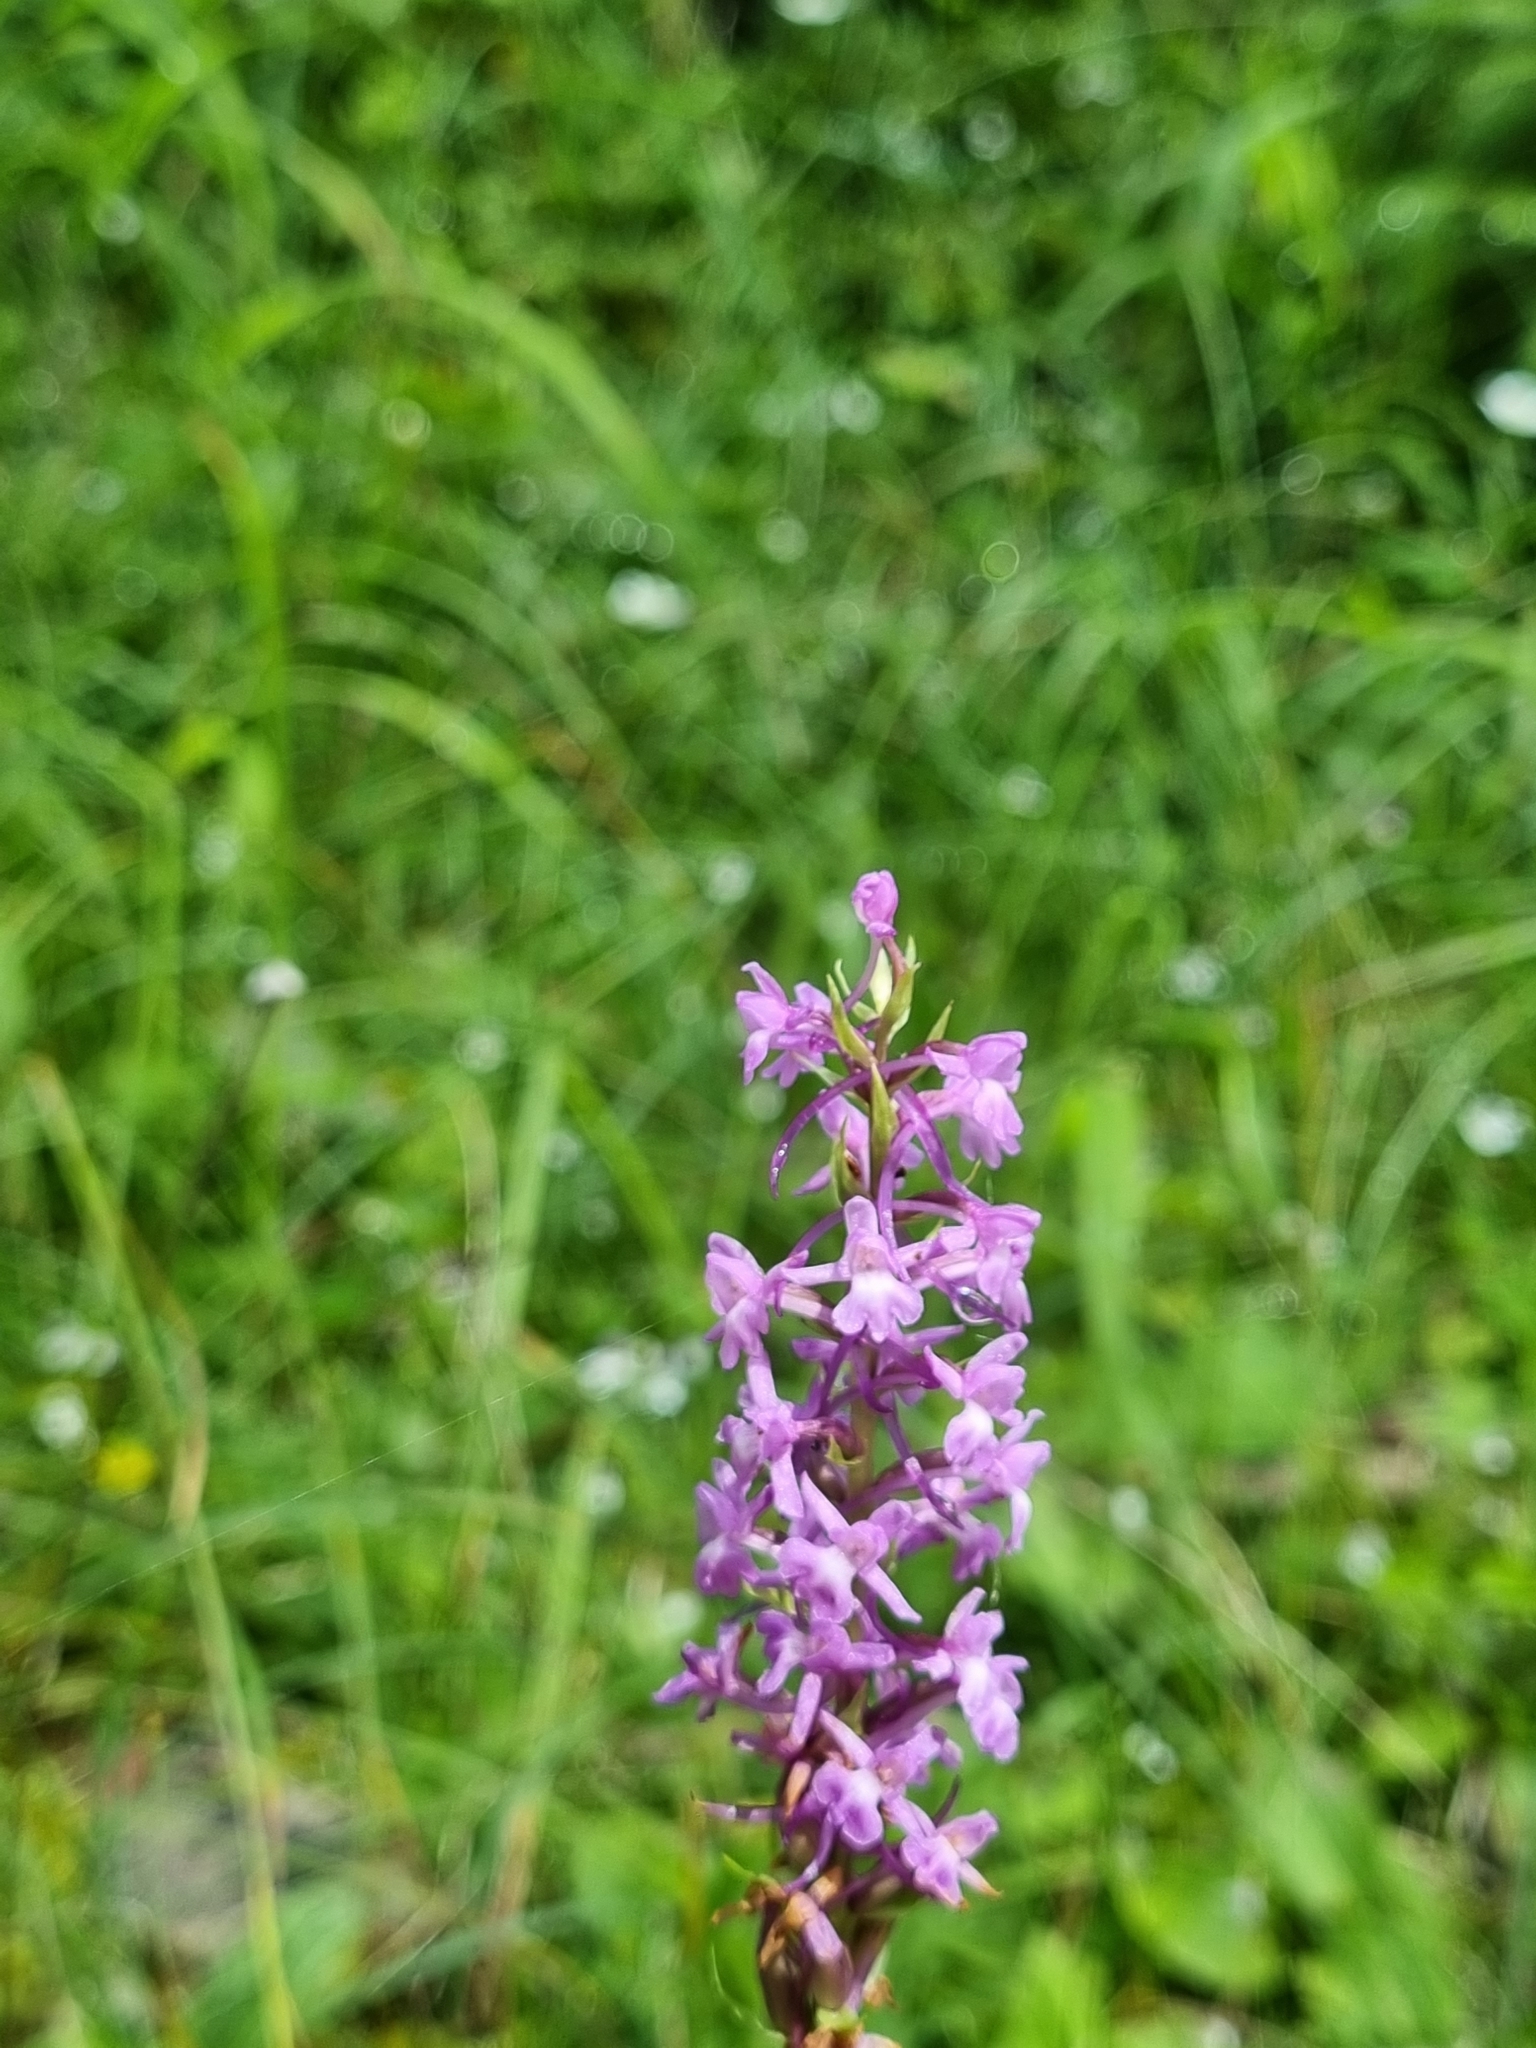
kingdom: Plantae
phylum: Tracheophyta
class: Liliopsida
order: Asparagales
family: Orchidaceae
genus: Gymnadenia
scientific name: Gymnadenia conopsea
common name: Fragrant orchid
